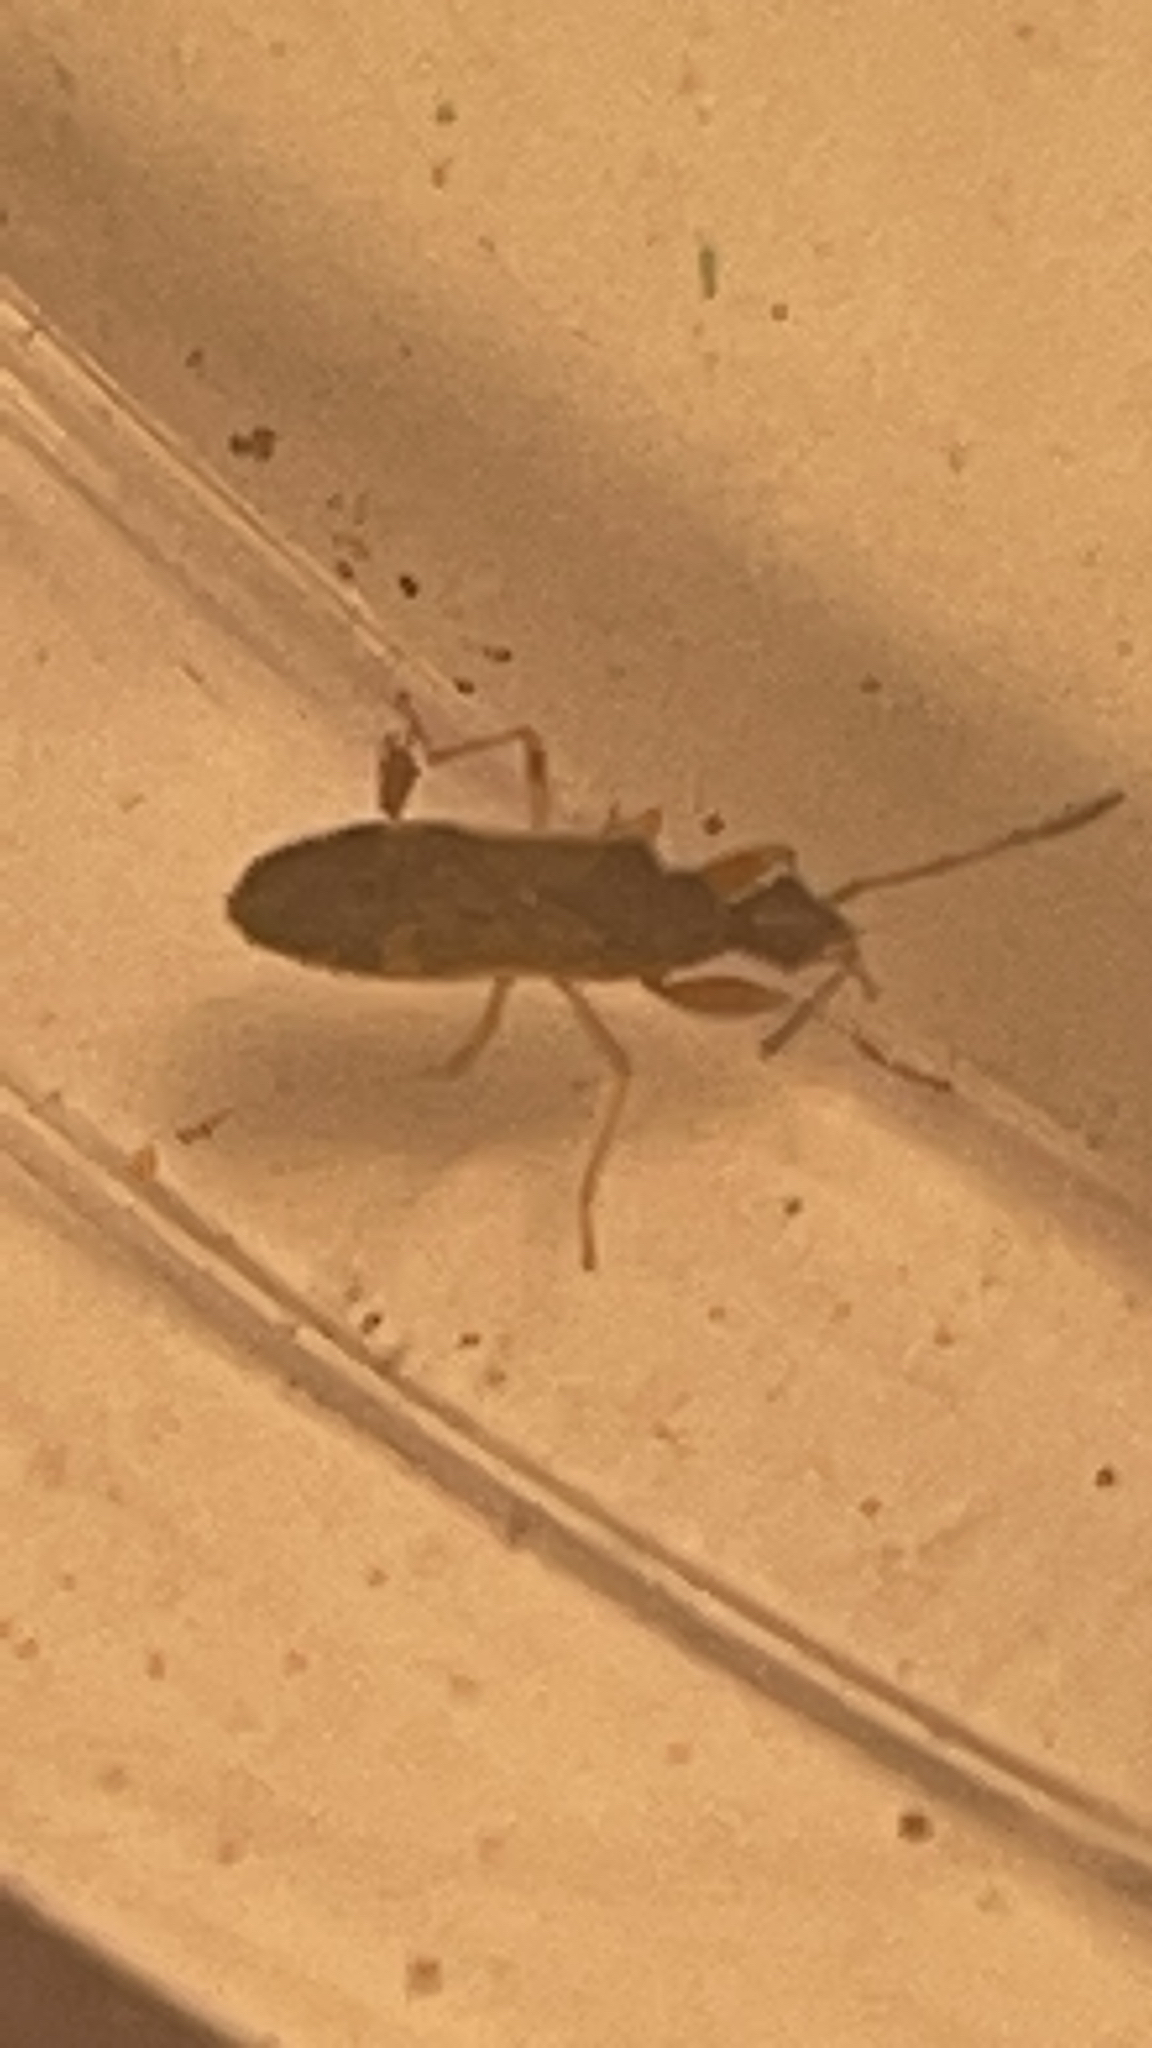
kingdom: Animalia
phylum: Arthropoda
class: Insecta
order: Hemiptera
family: Rhyparochromidae
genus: Heraeus
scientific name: Heraeus plebejus
